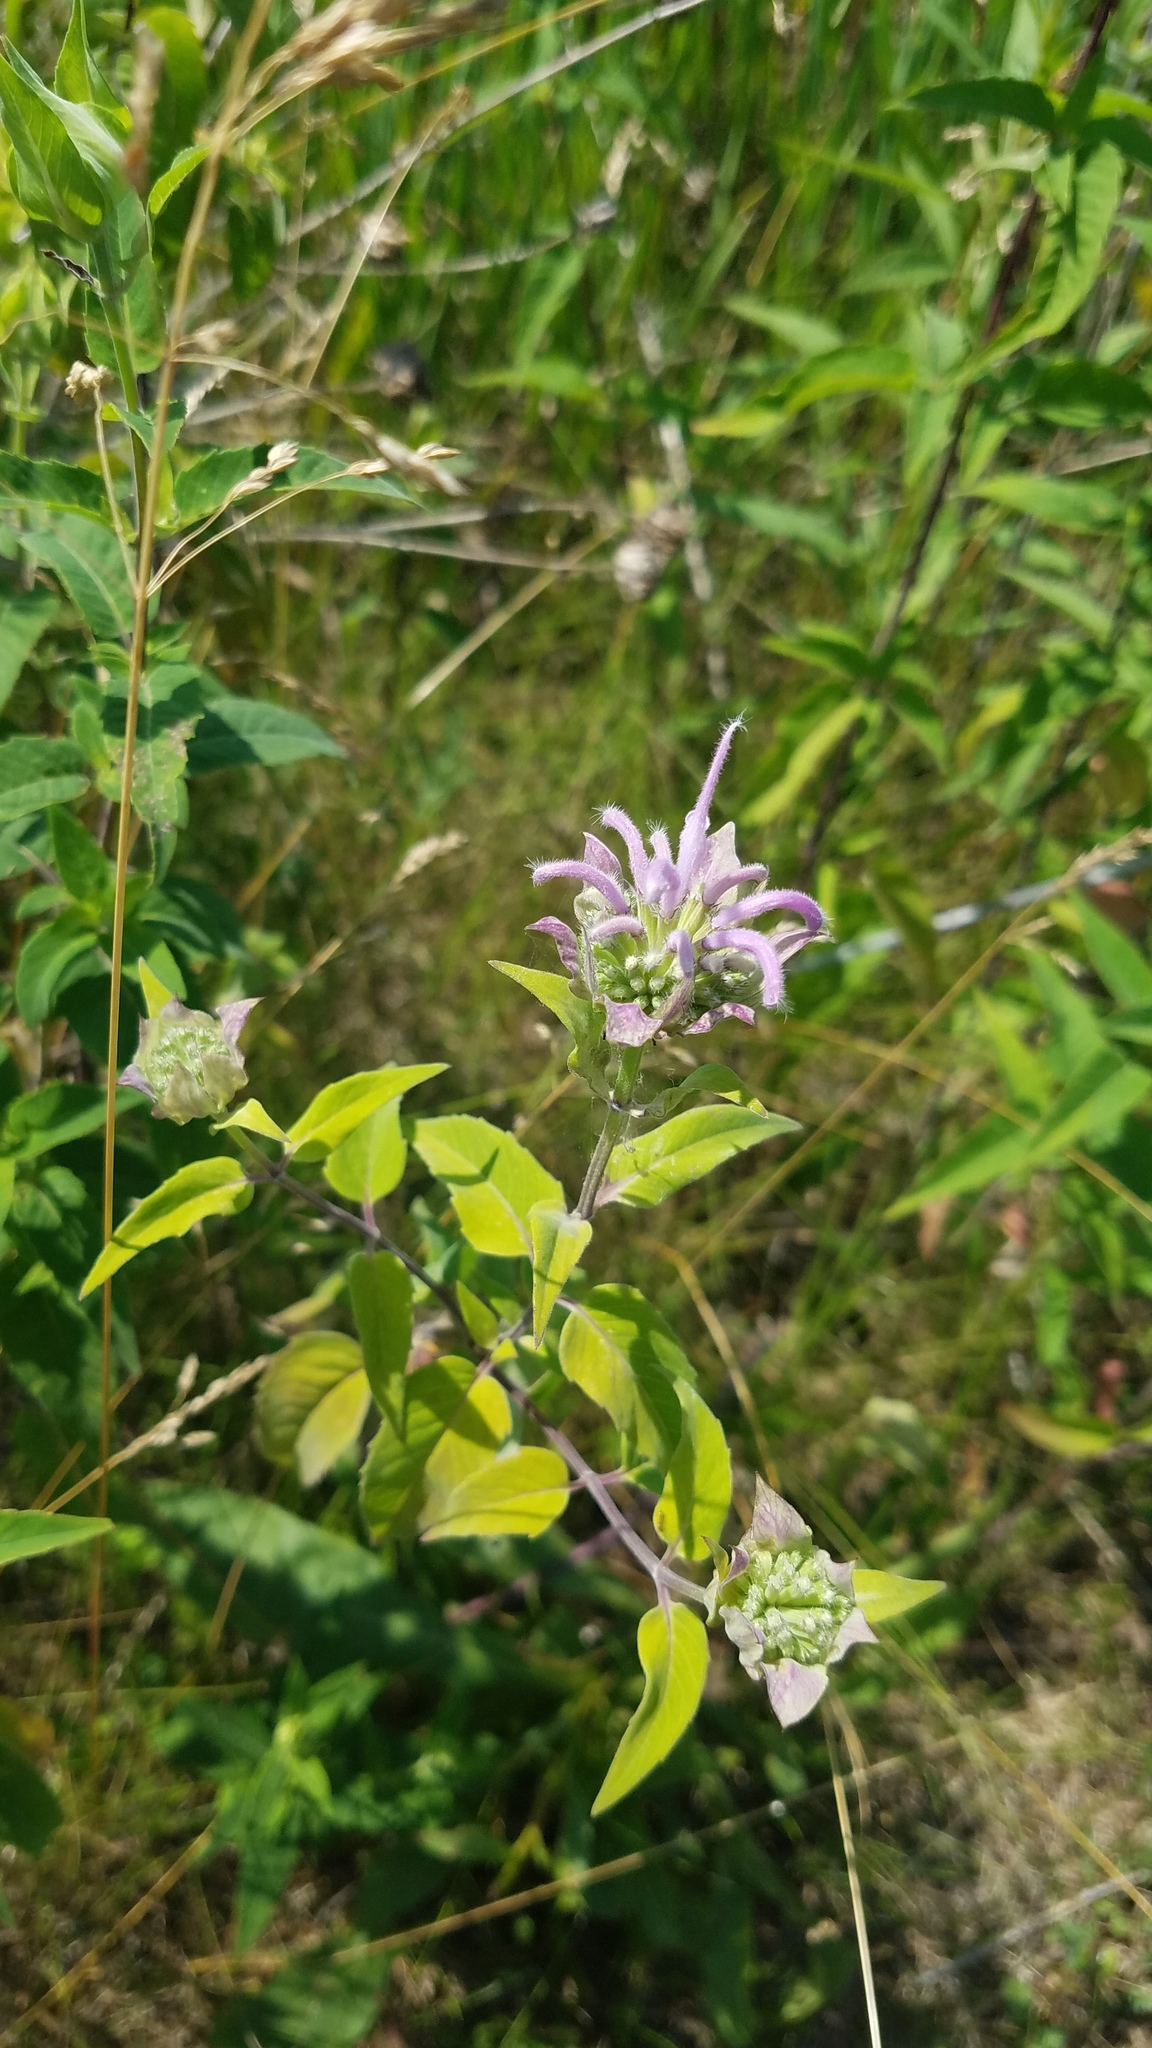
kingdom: Plantae
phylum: Tracheophyta
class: Magnoliopsida
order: Lamiales
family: Lamiaceae
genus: Monarda
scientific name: Monarda fistulosa
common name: Purple beebalm
